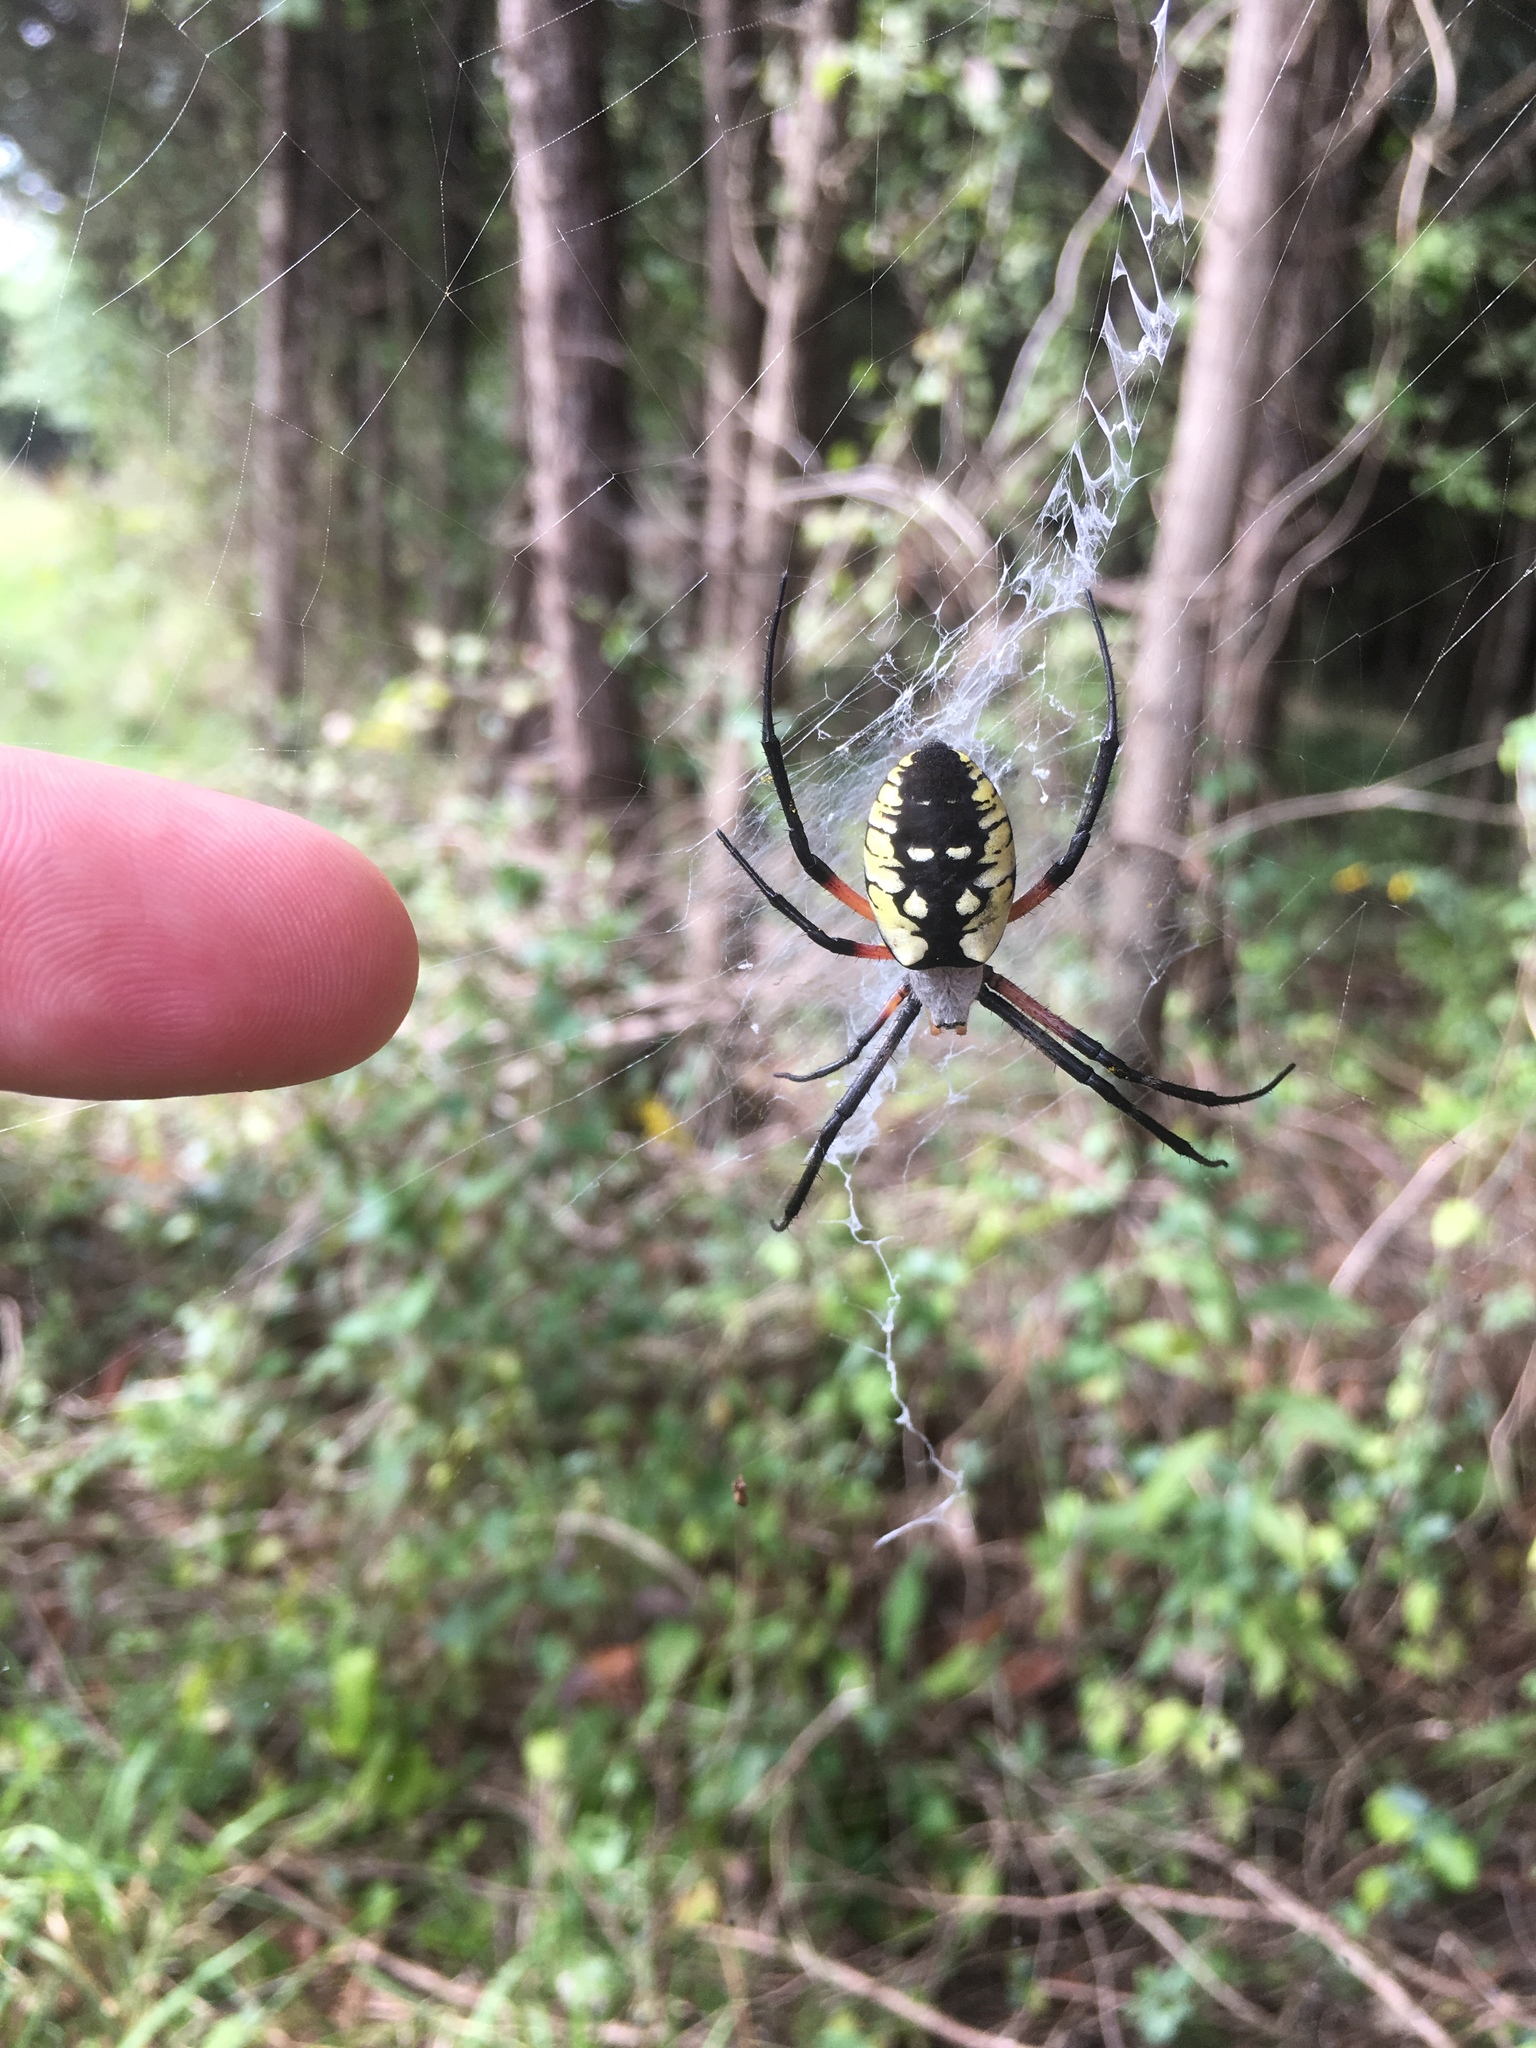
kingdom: Animalia
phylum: Arthropoda
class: Arachnida
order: Araneae
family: Araneidae
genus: Argiope
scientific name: Argiope aurantia
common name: Orb weavers
